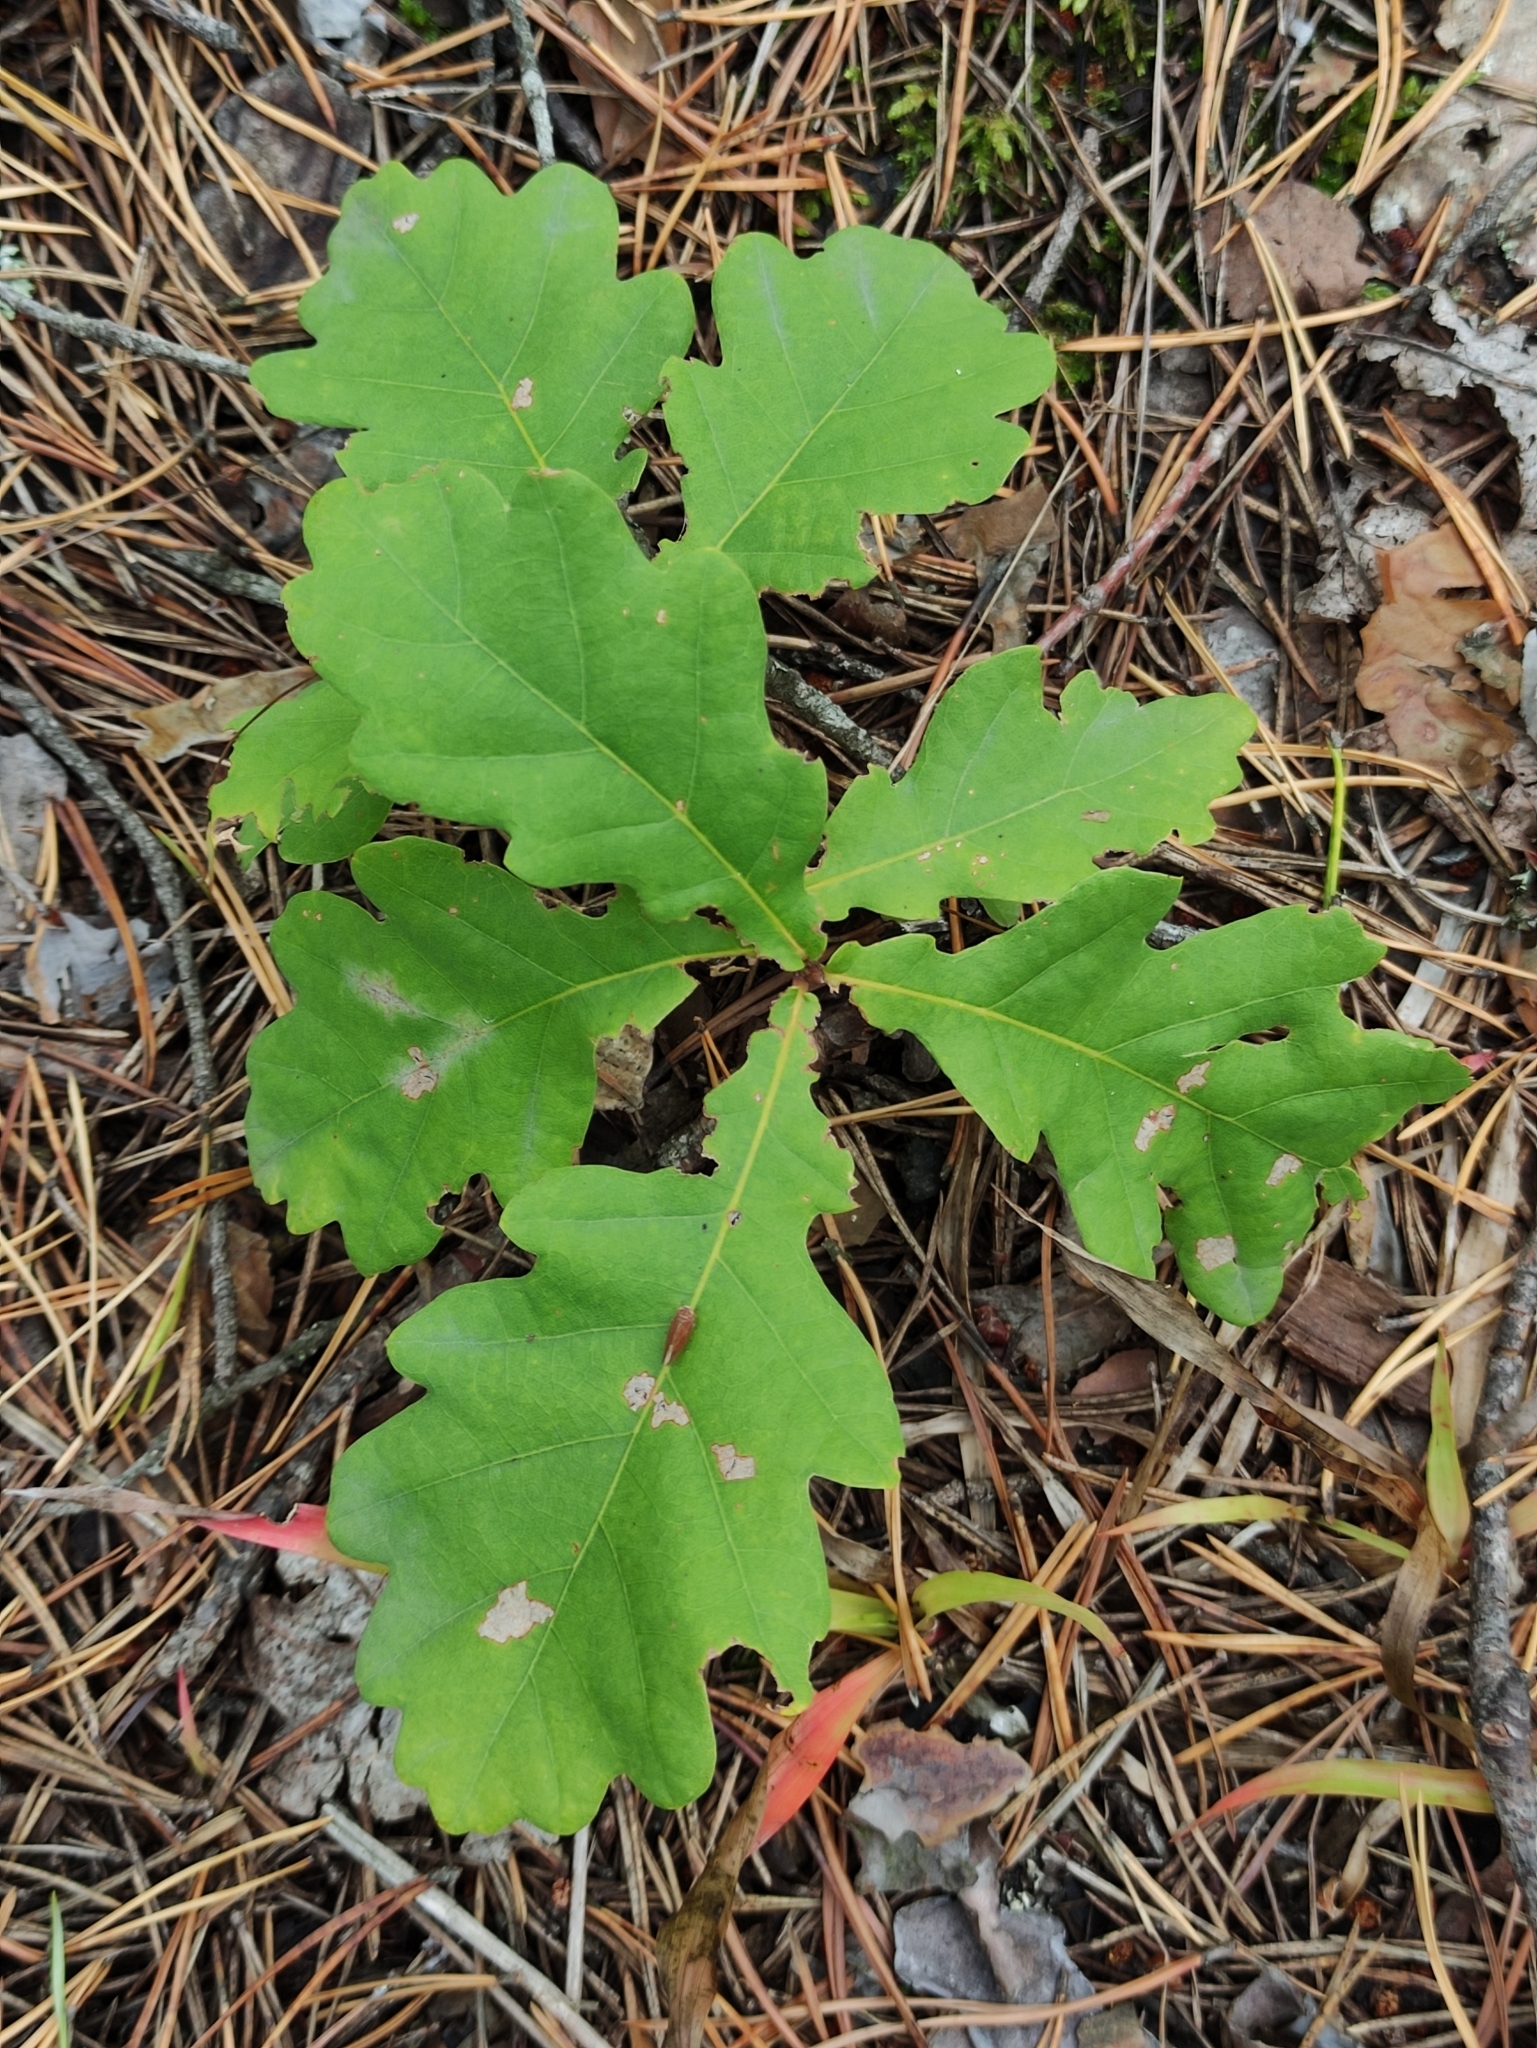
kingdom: Plantae
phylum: Tracheophyta
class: Magnoliopsida
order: Fagales
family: Fagaceae
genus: Quercus
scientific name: Quercus robur
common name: Pedunculate oak
